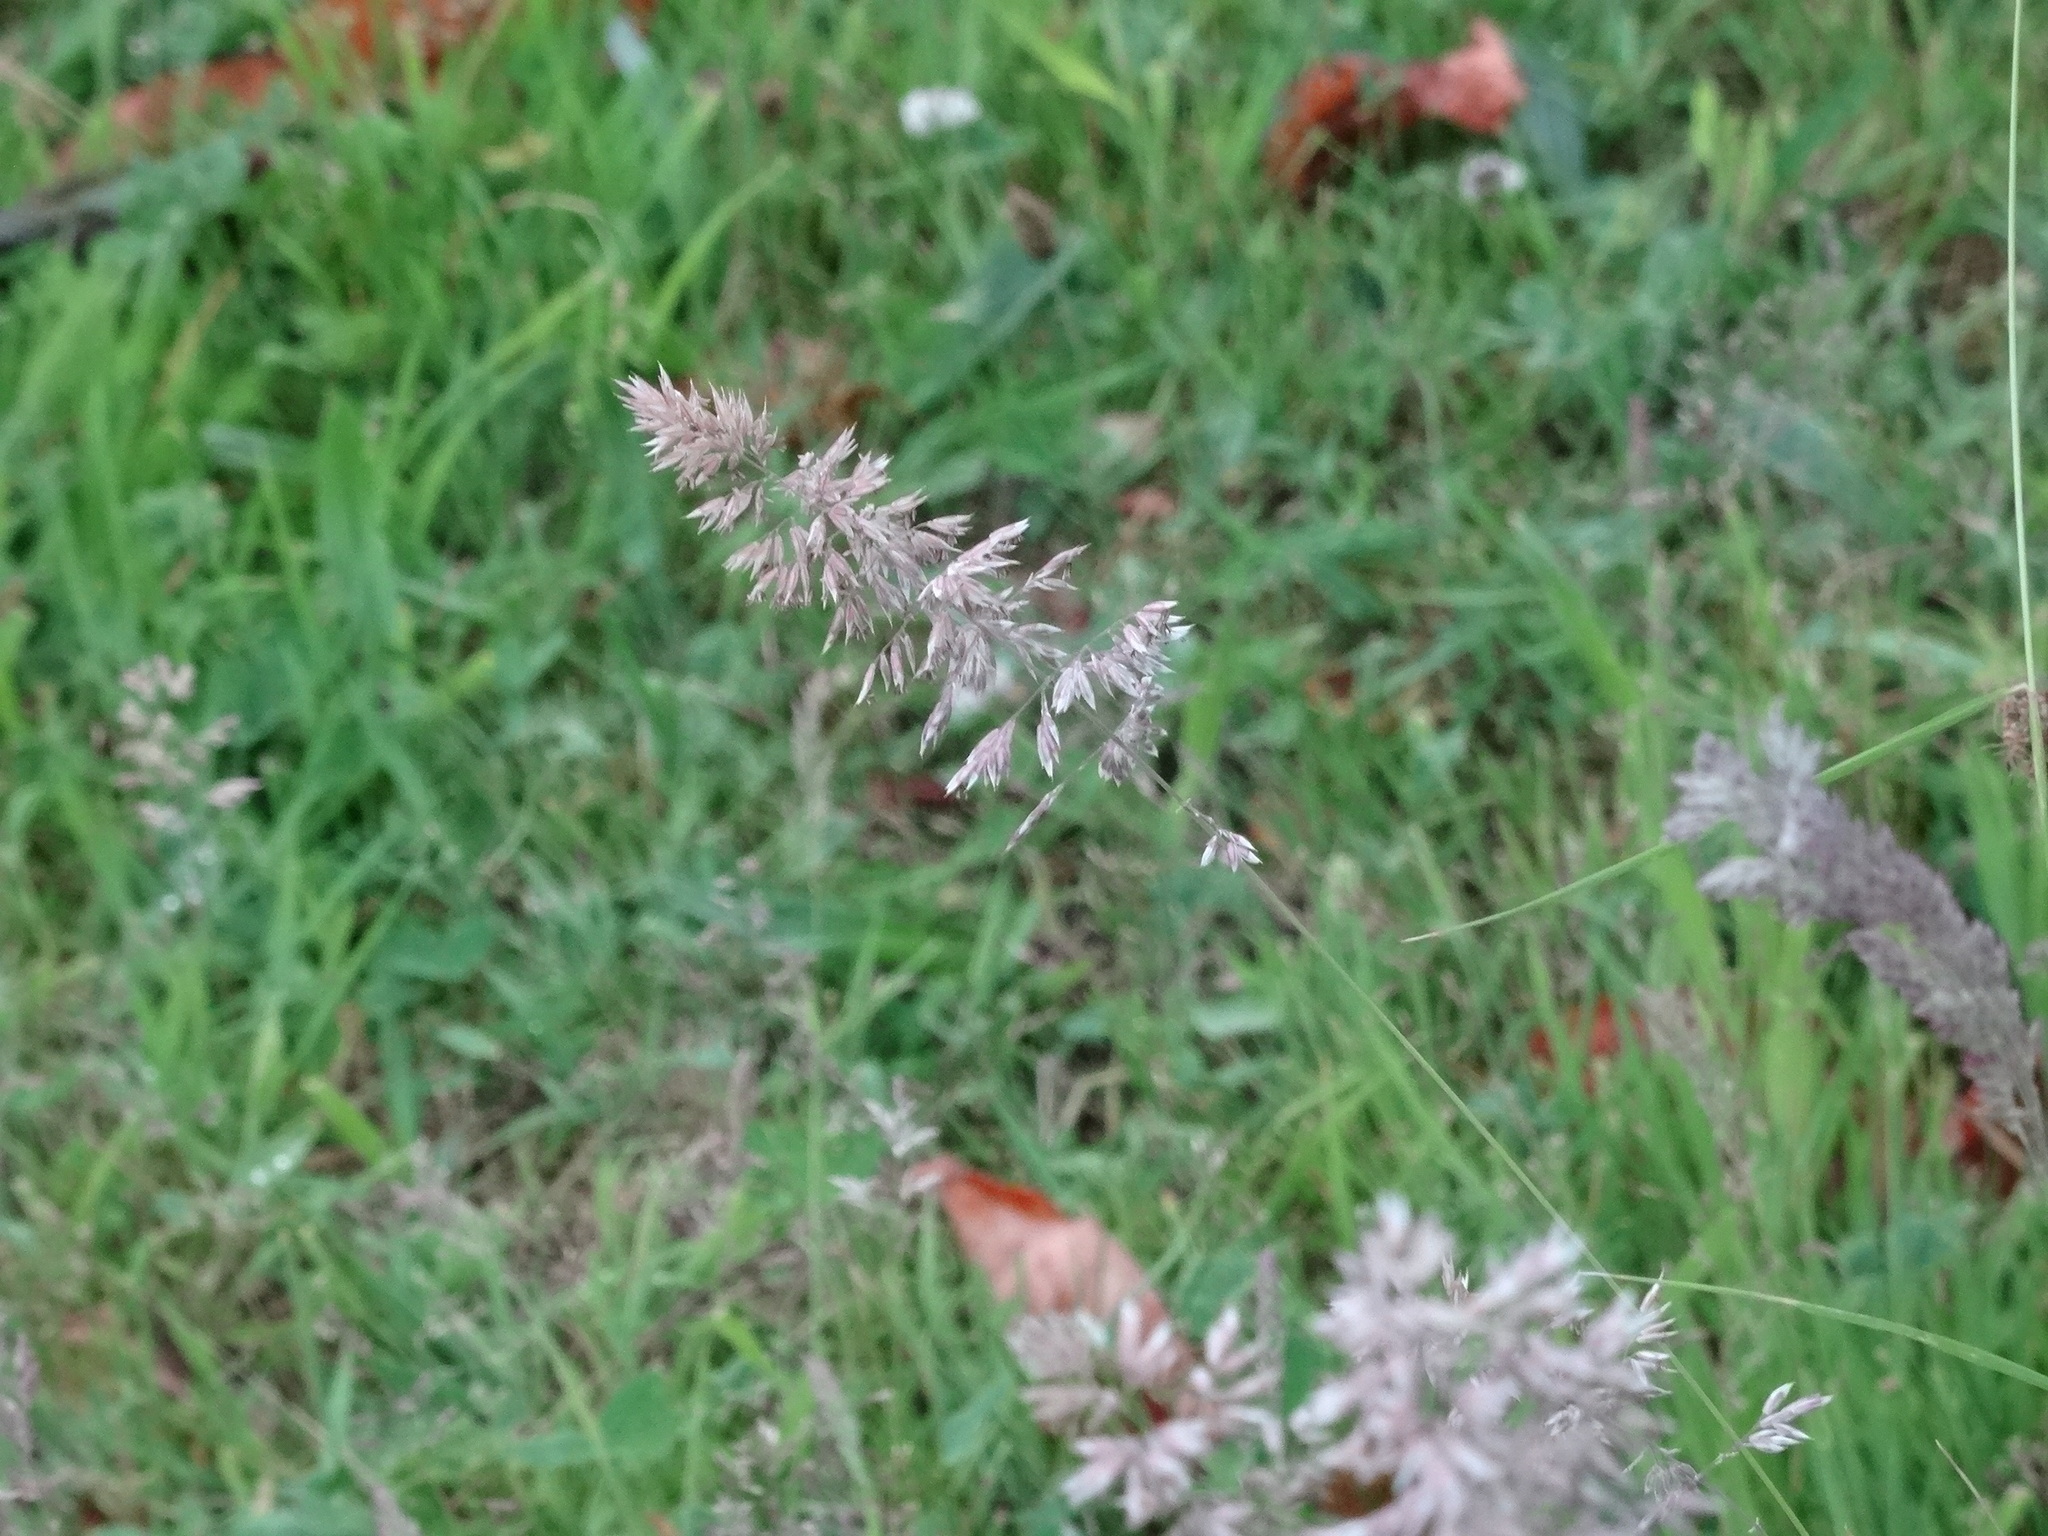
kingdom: Plantae
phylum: Tracheophyta
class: Liliopsida
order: Poales
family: Poaceae
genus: Holcus
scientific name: Holcus lanatus
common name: Yorkshire-fog
